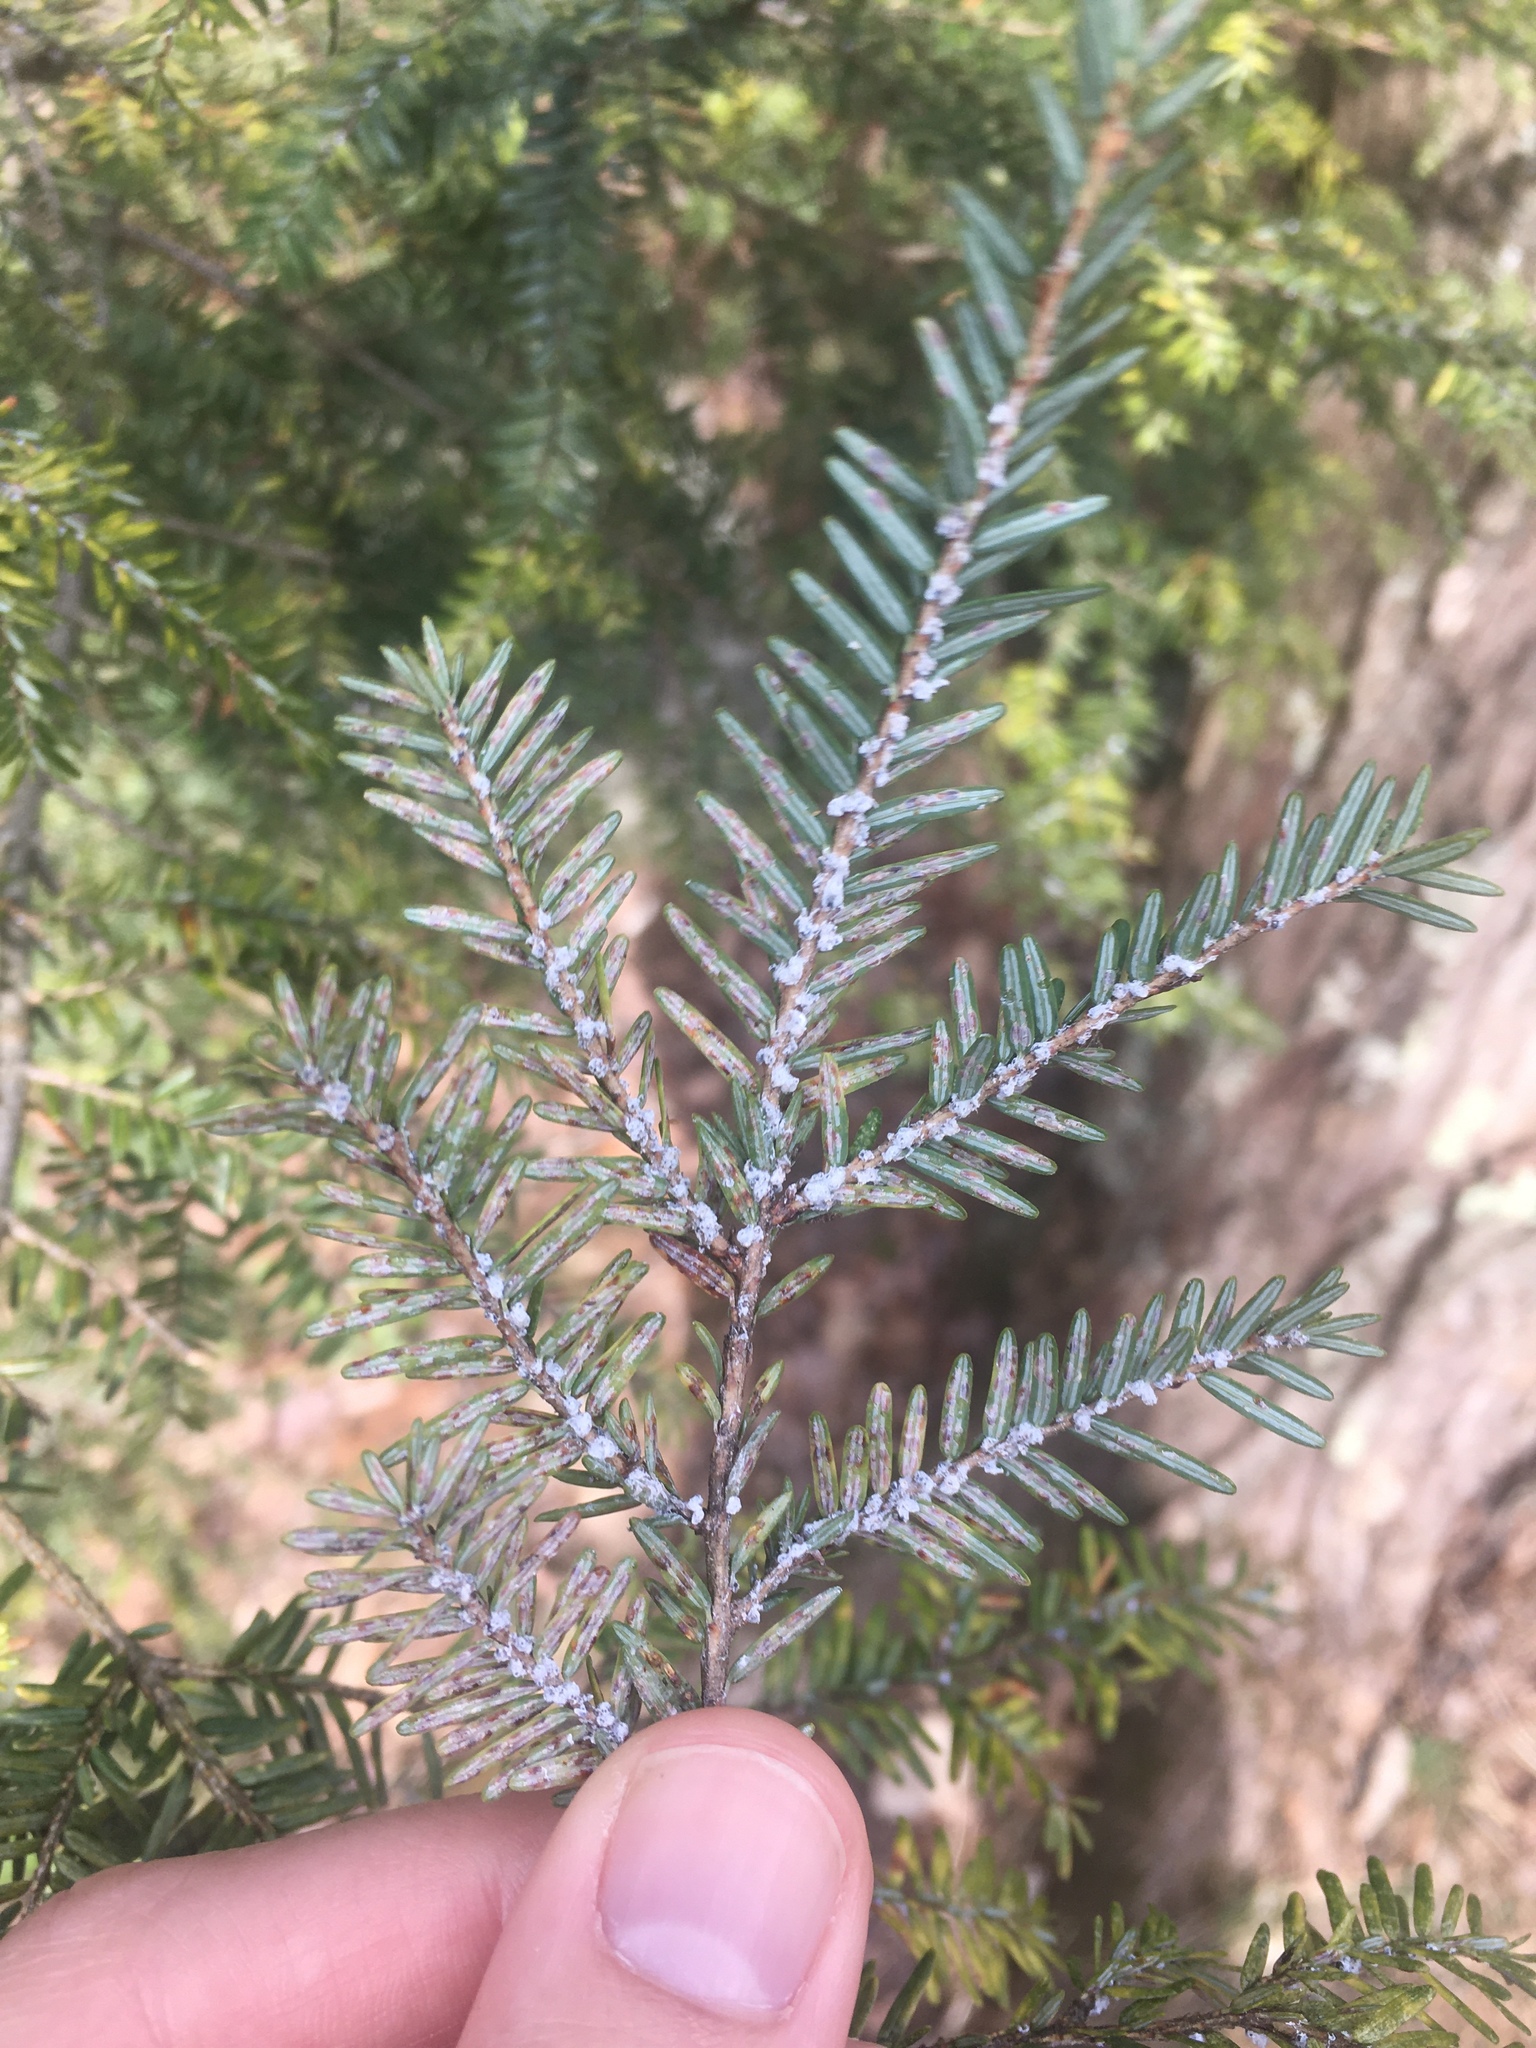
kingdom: Animalia
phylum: Arthropoda
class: Insecta
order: Hemiptera
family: Adelgidae
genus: Adelges
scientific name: Adelges tsugae
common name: Hemlock woolly adelgid
